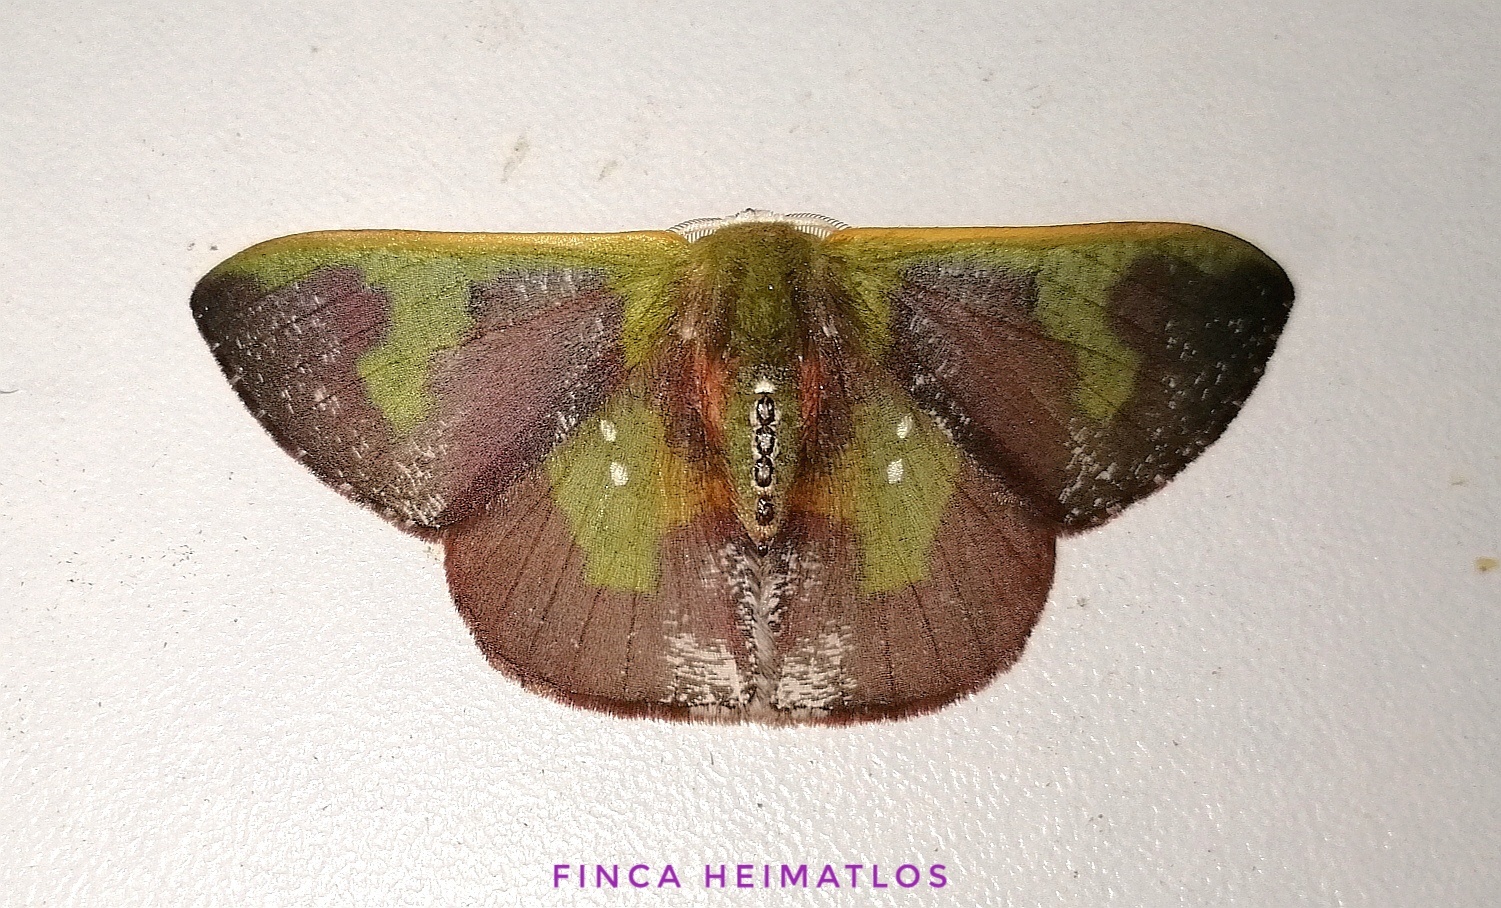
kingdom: Animalia
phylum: Arthropoda
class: Insecta
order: Lepidoptera
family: Geometridae
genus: Oospila
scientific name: Oospila lilacina
